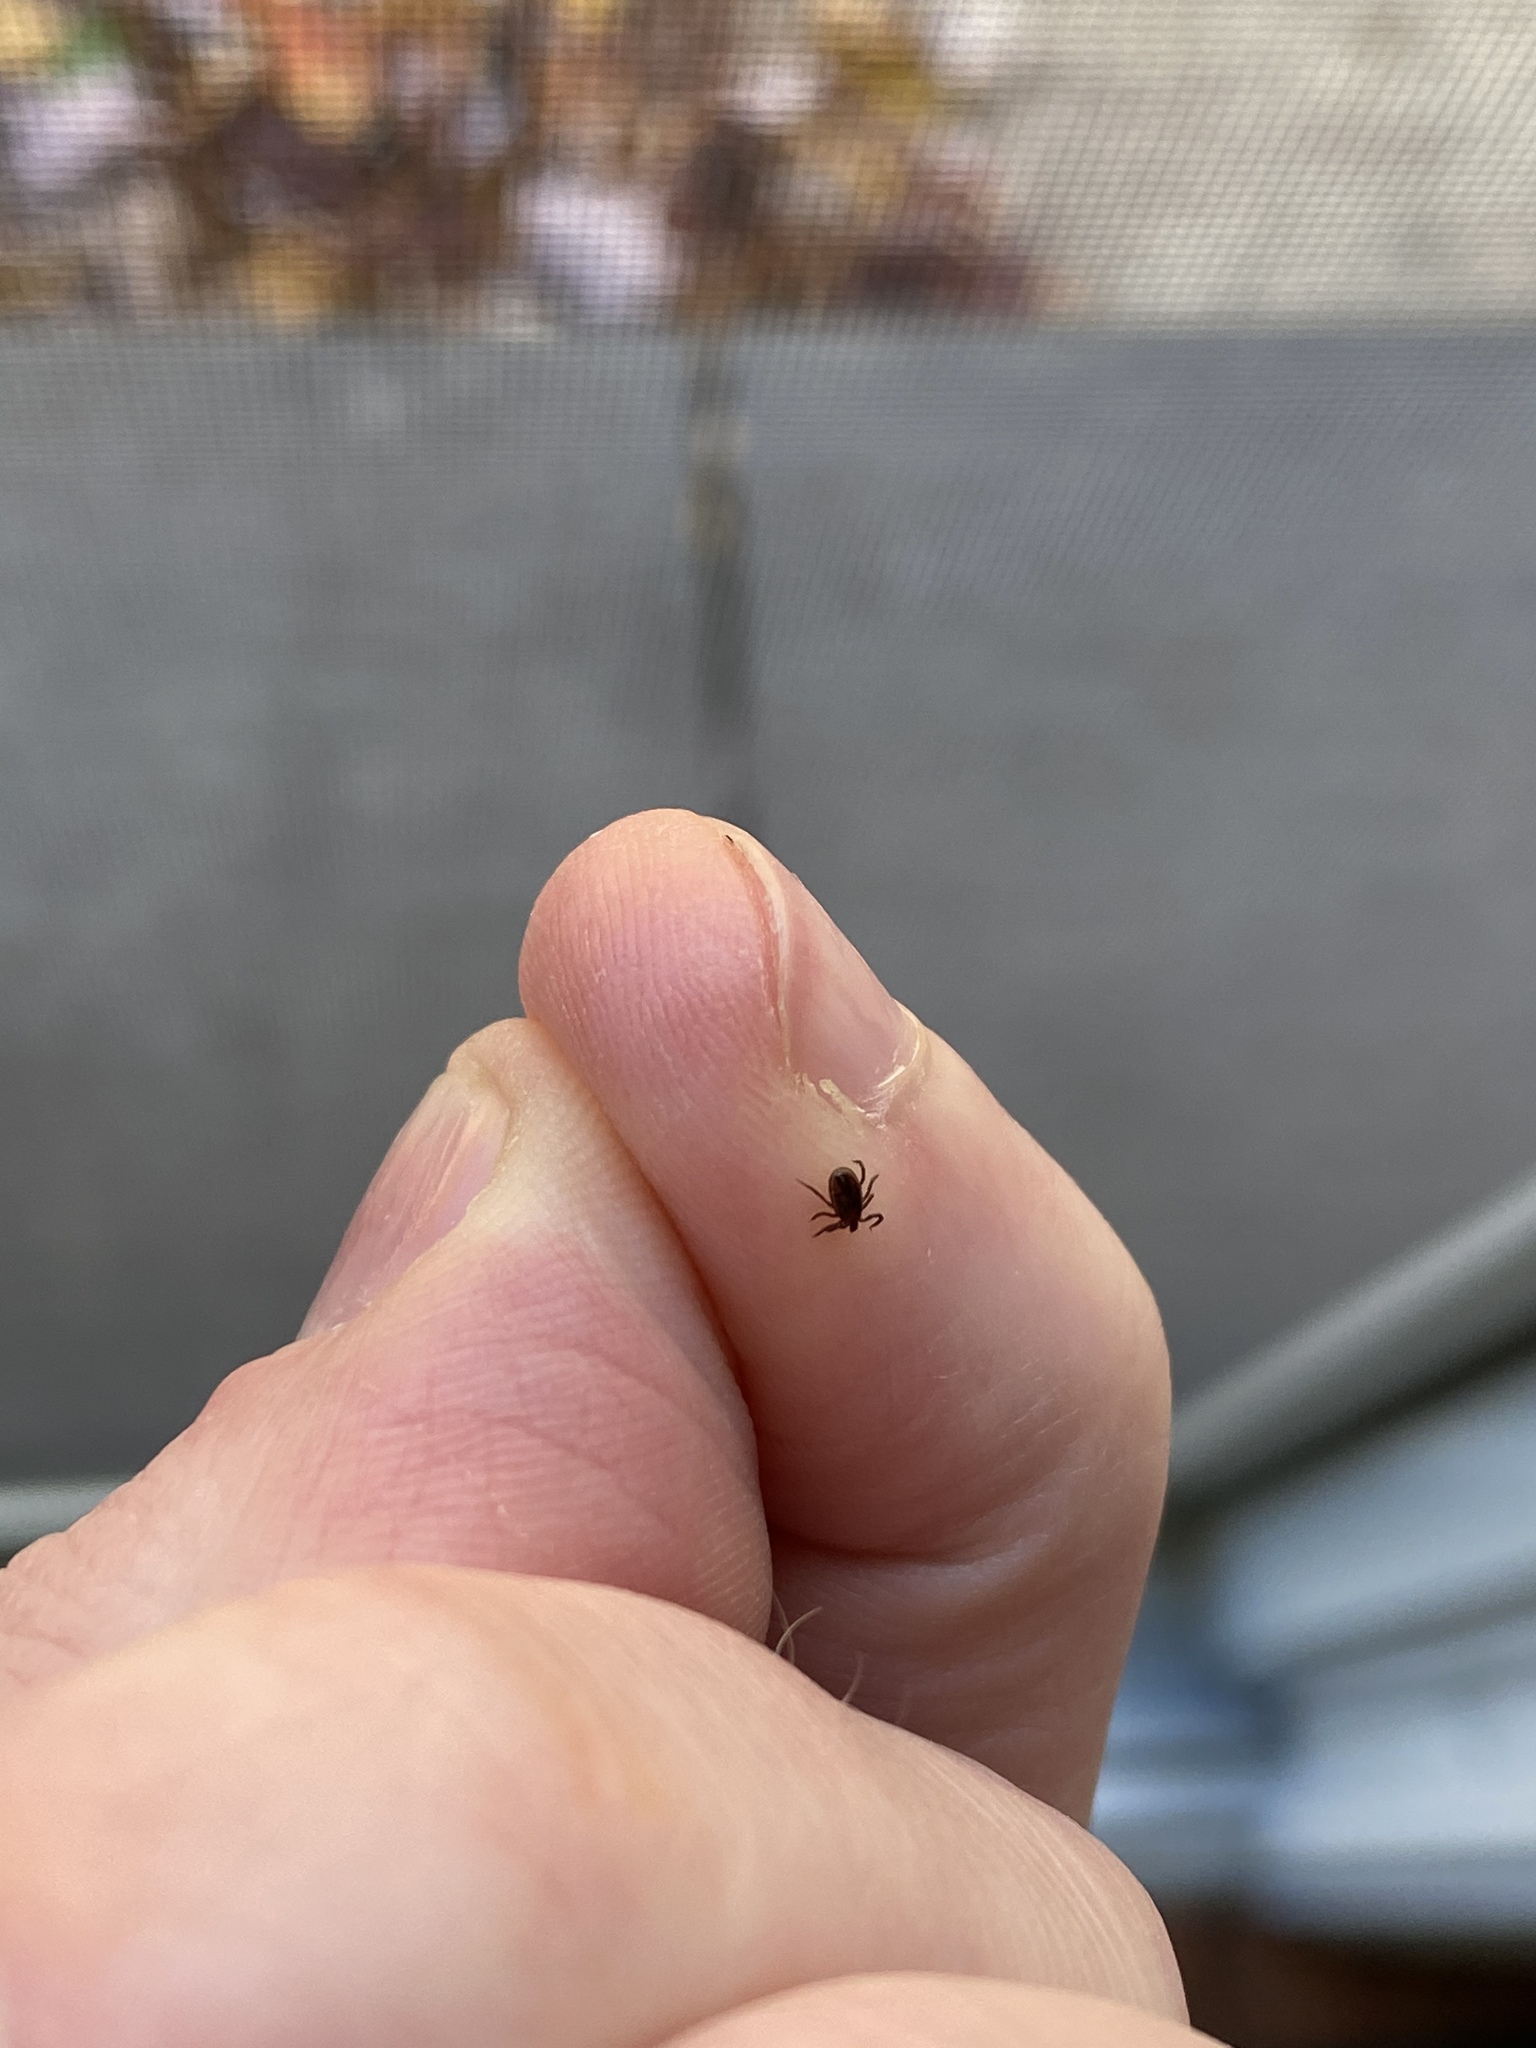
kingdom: Animalia
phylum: Arthropoda
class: Arachnida
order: Ixodida
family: Ixodidae
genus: Ixodes
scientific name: Ixodes scapularis
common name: Black legged tick
